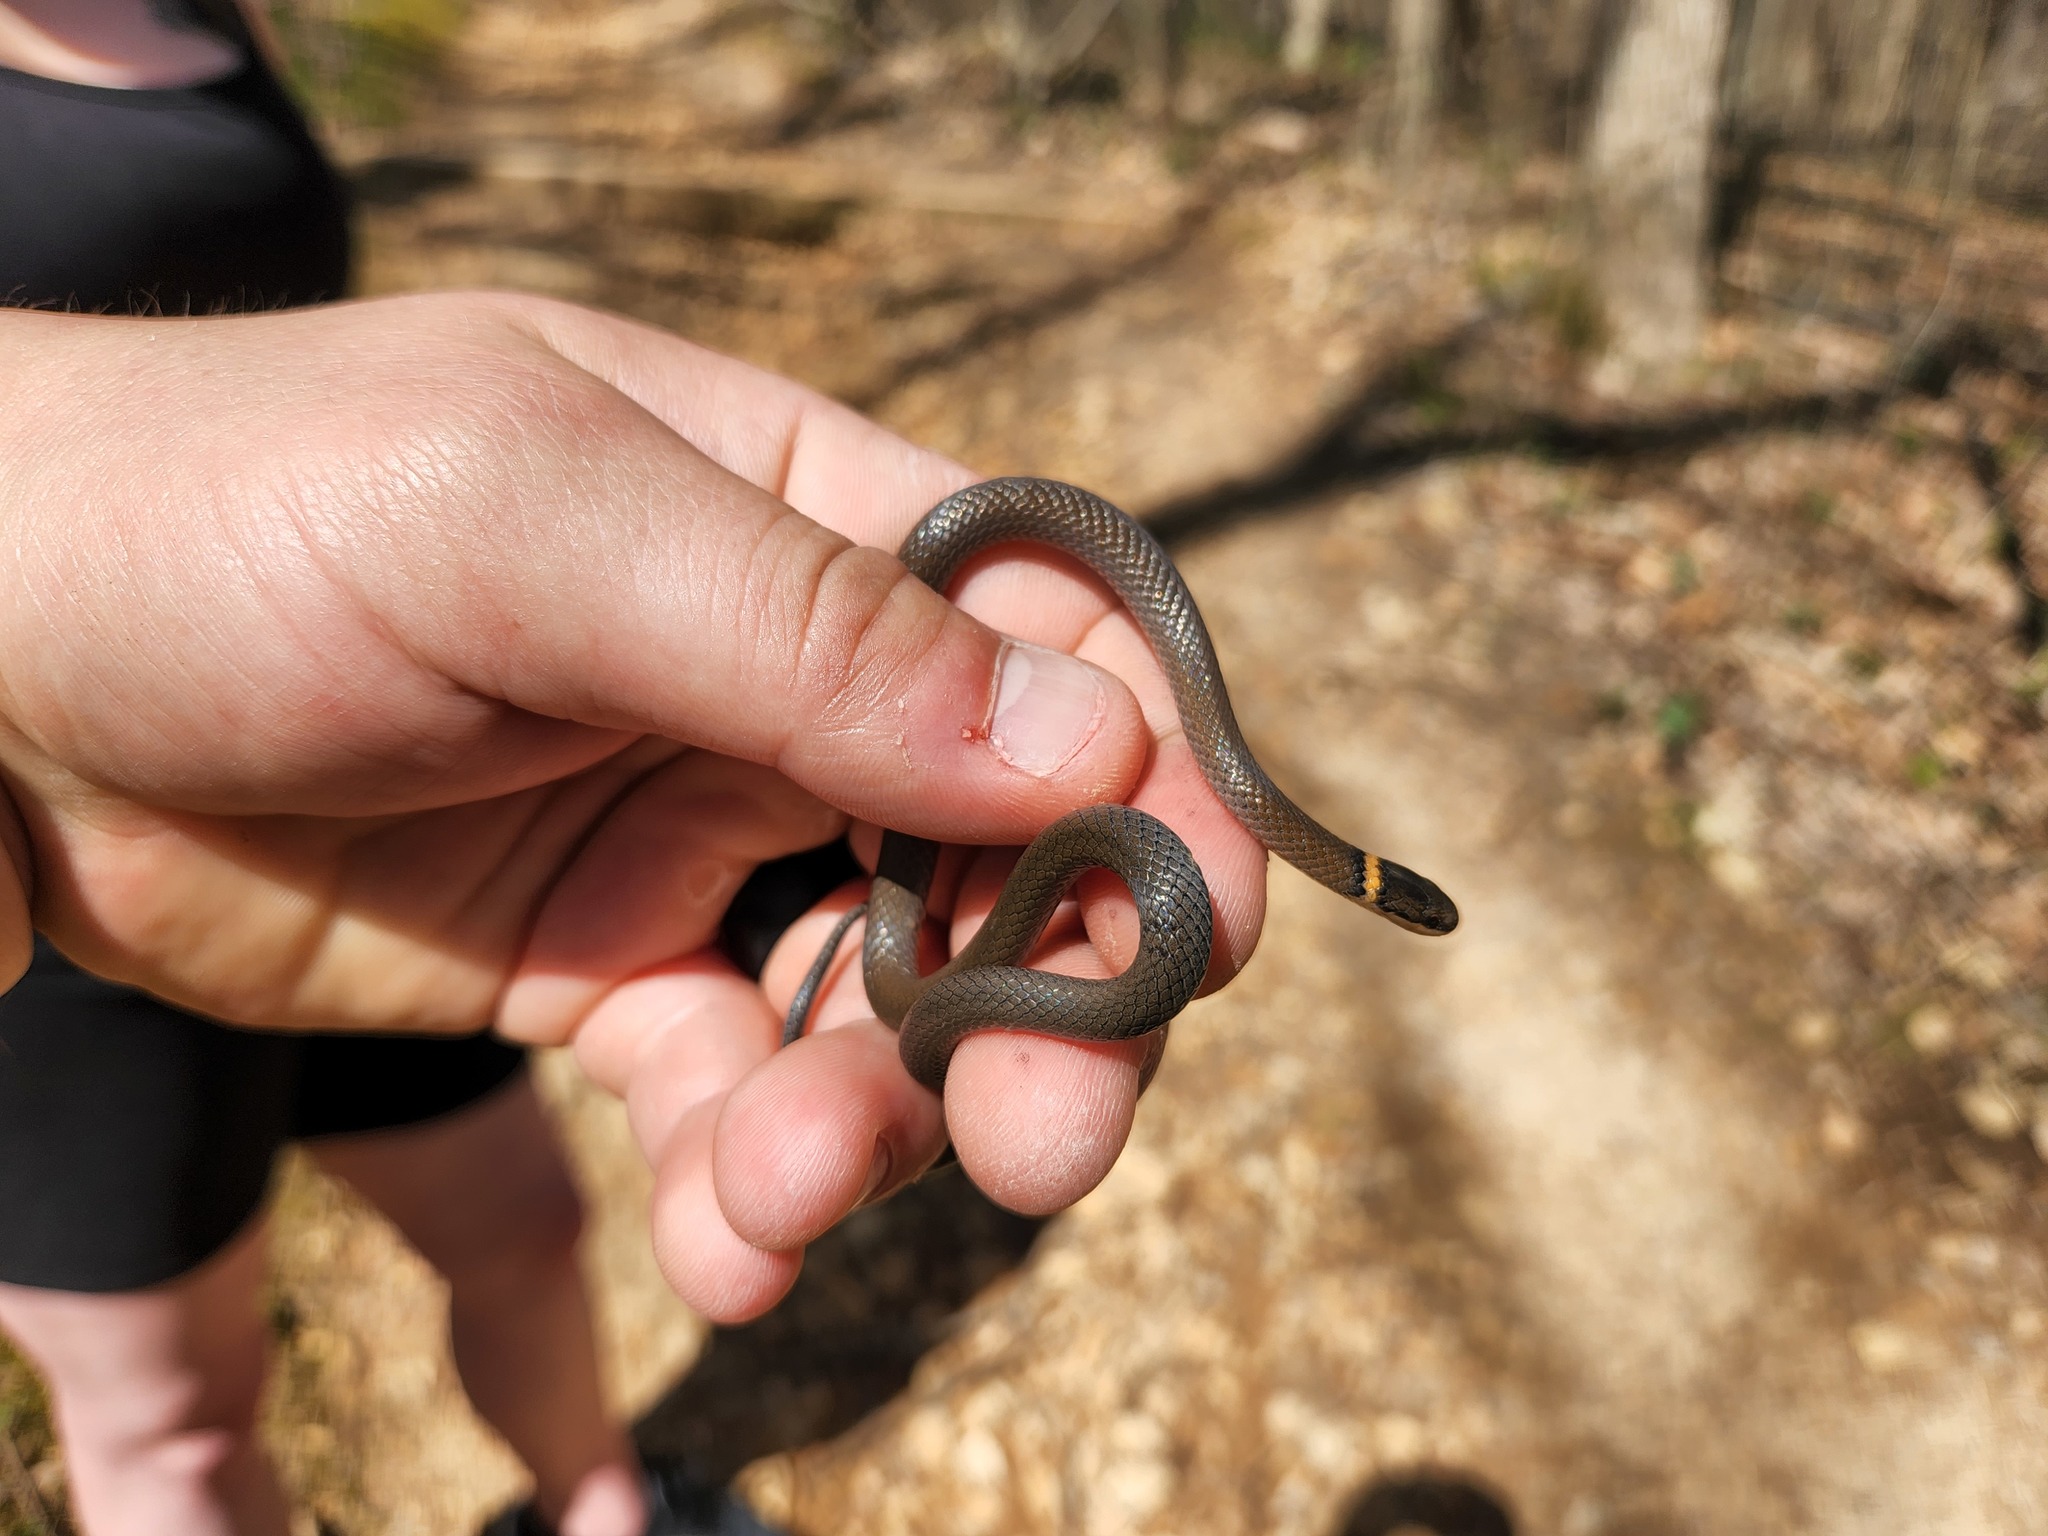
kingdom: Animalia
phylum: Chordata
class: Squamata
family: Colubridae
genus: Diadophis
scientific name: Diadophis punctatus
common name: Ringneck snake
